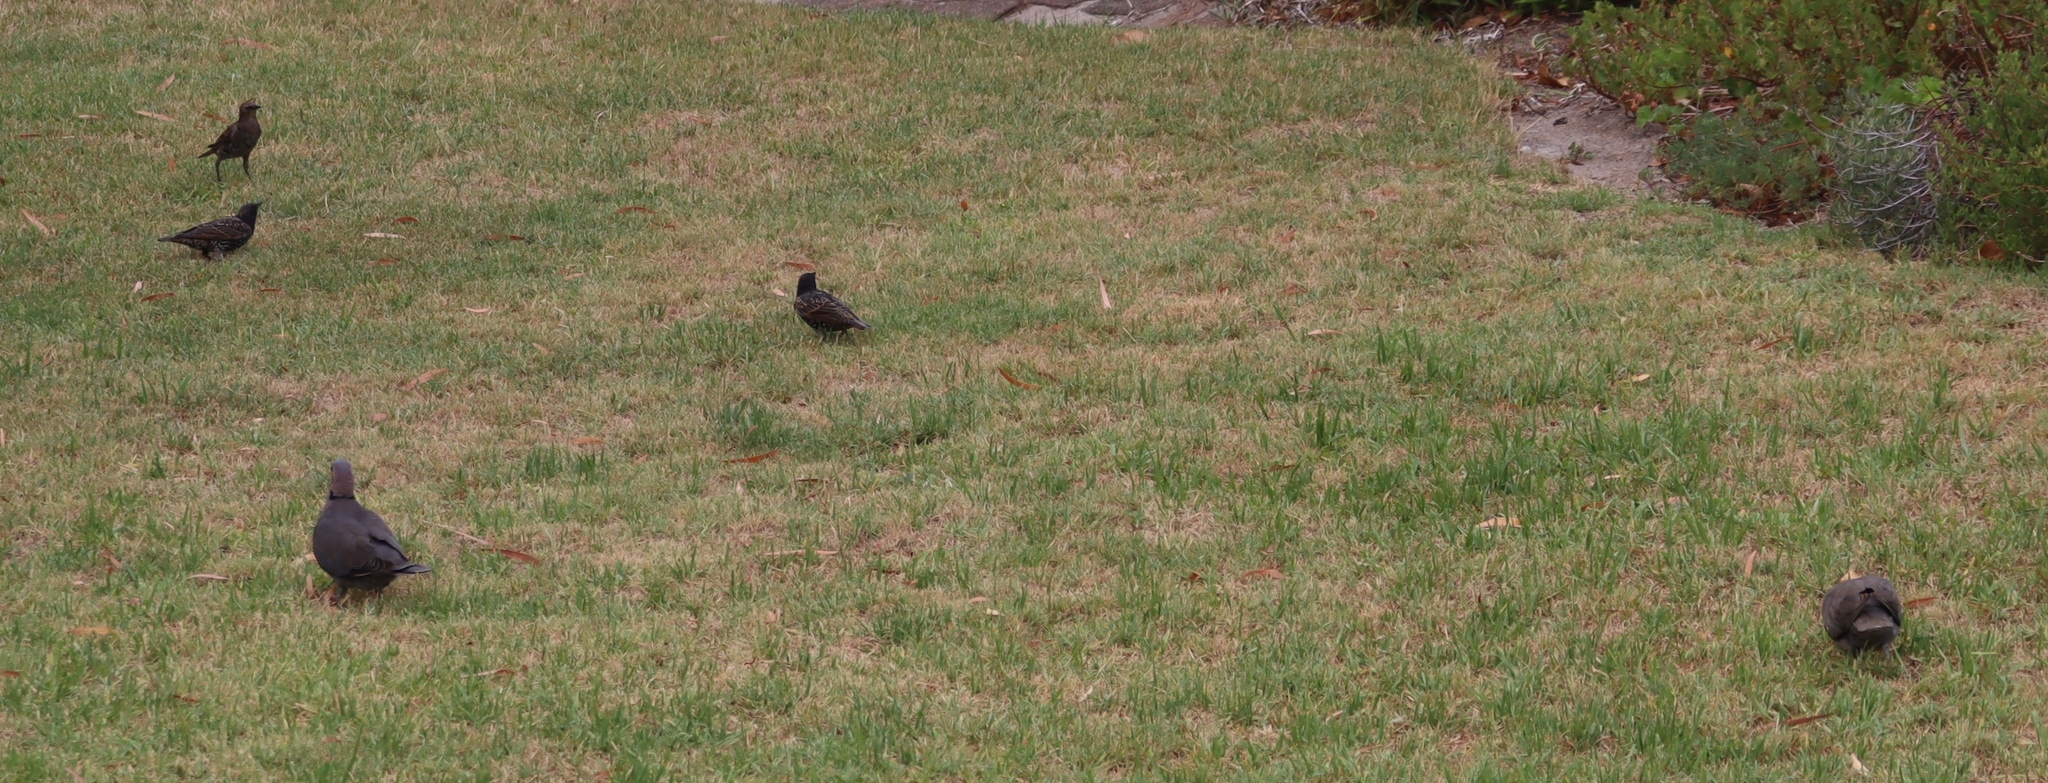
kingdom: Animalia
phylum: Chordata
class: Aves
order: Passeriformes
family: Sturnidae
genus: Sturnus
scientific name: Sturnus vulgaris
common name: Common starling
